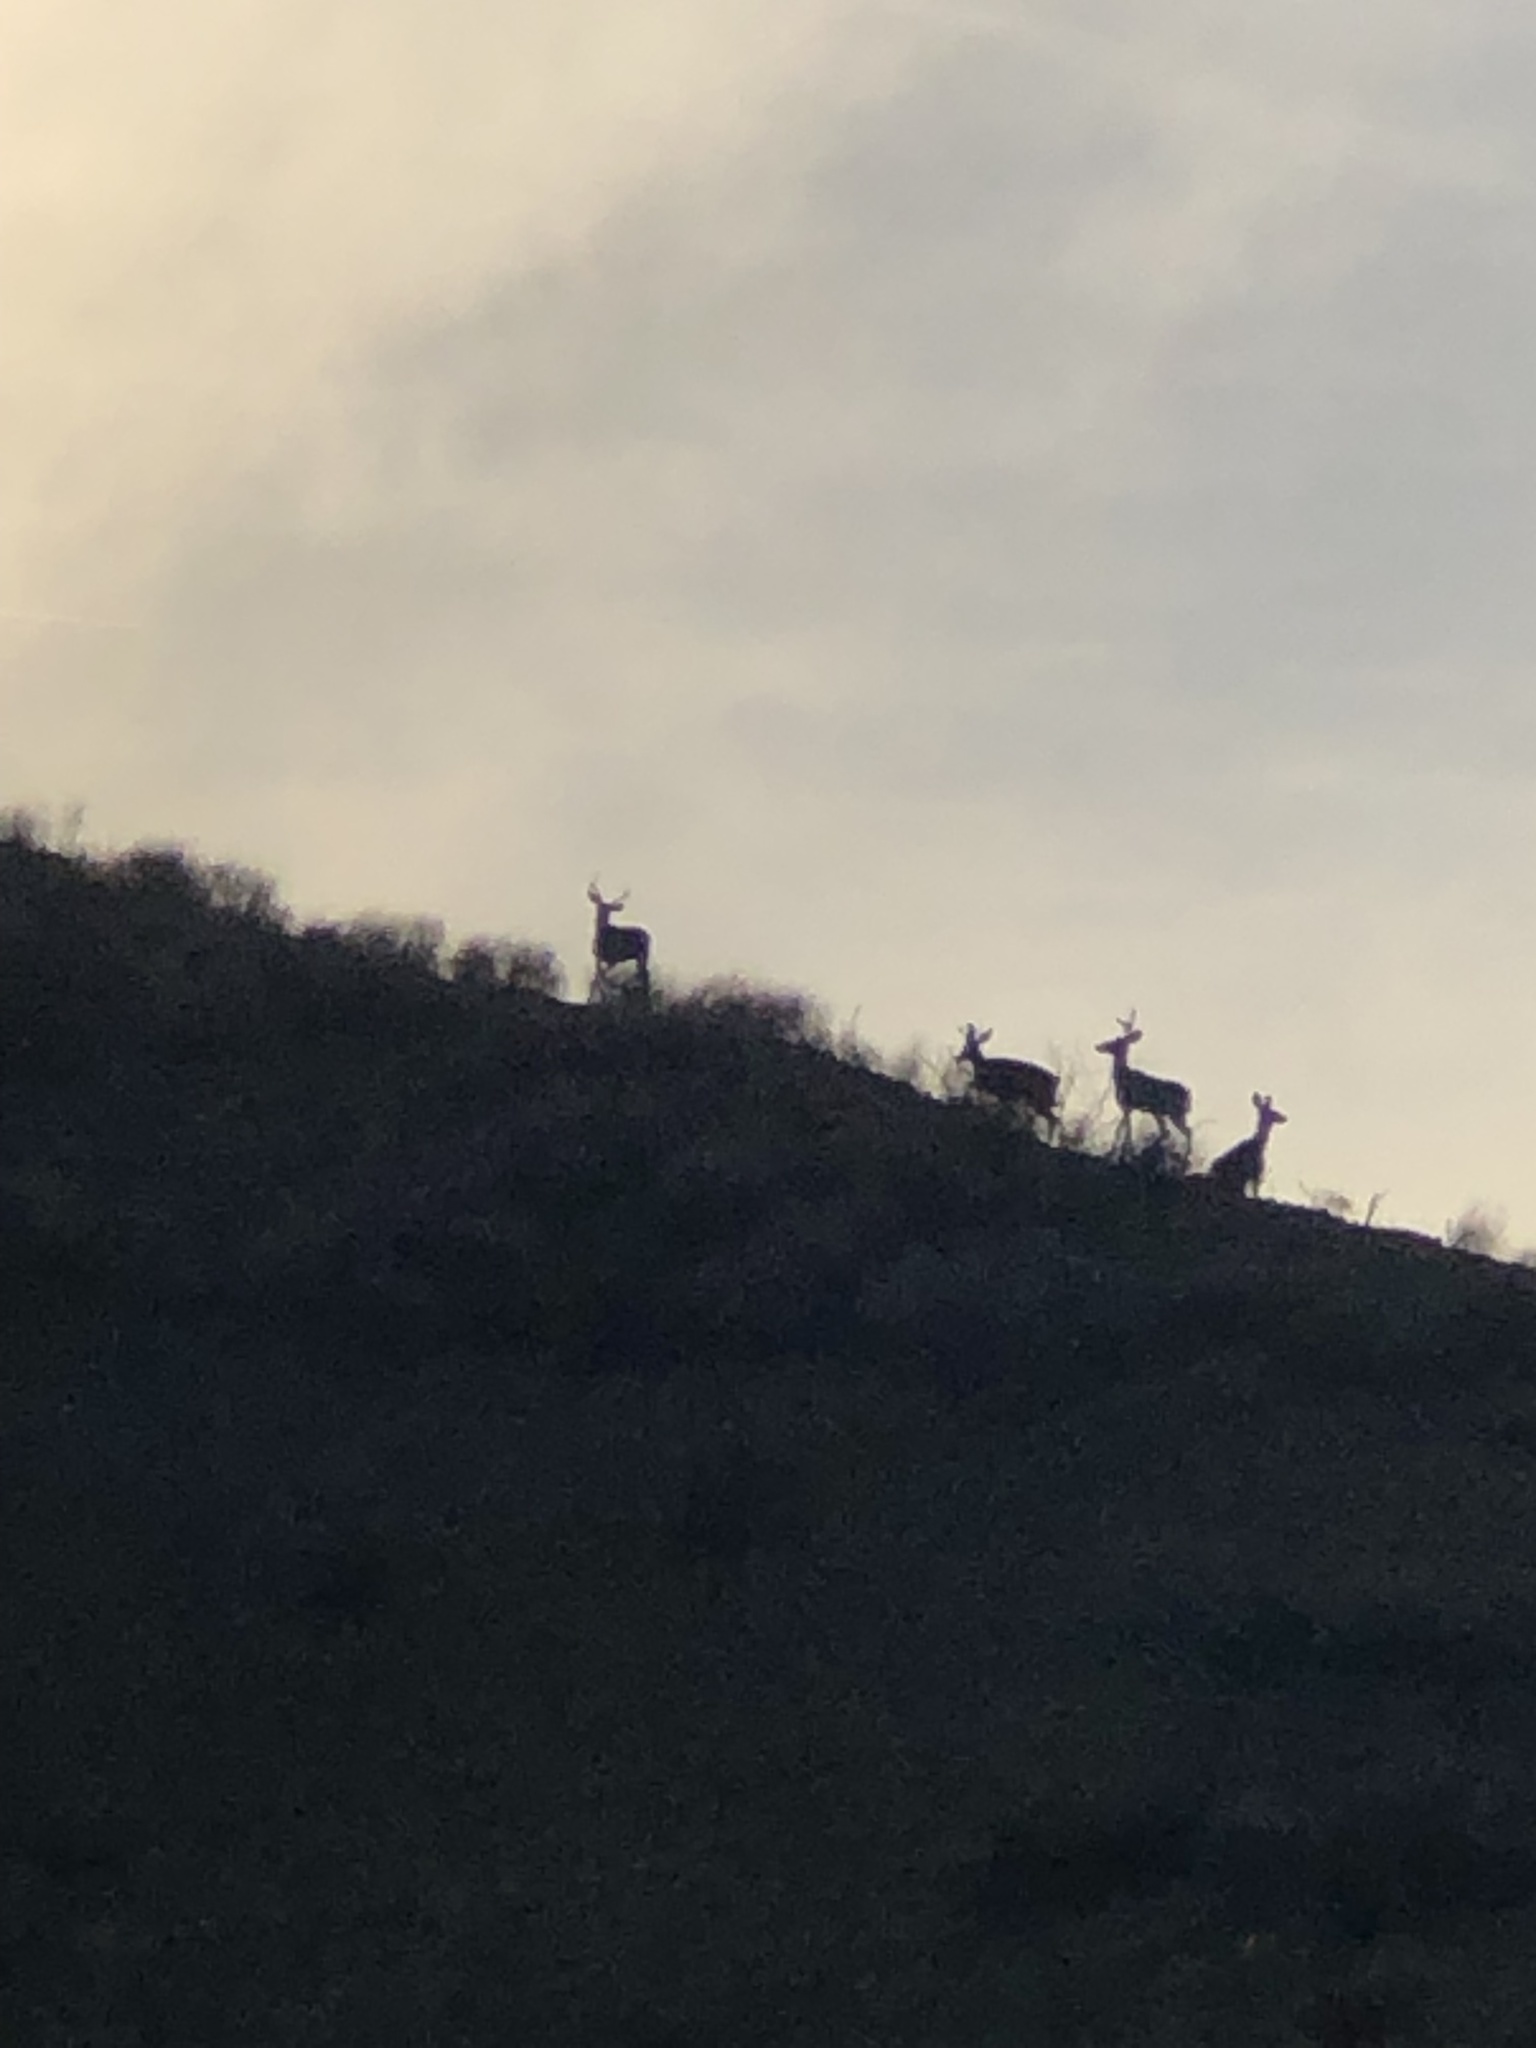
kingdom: Animalia
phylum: Chordata
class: Mammalia
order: Artiodactyla
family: Cervidae
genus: Odocoileus
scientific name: Odocoileus hemionus
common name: Mule deer
